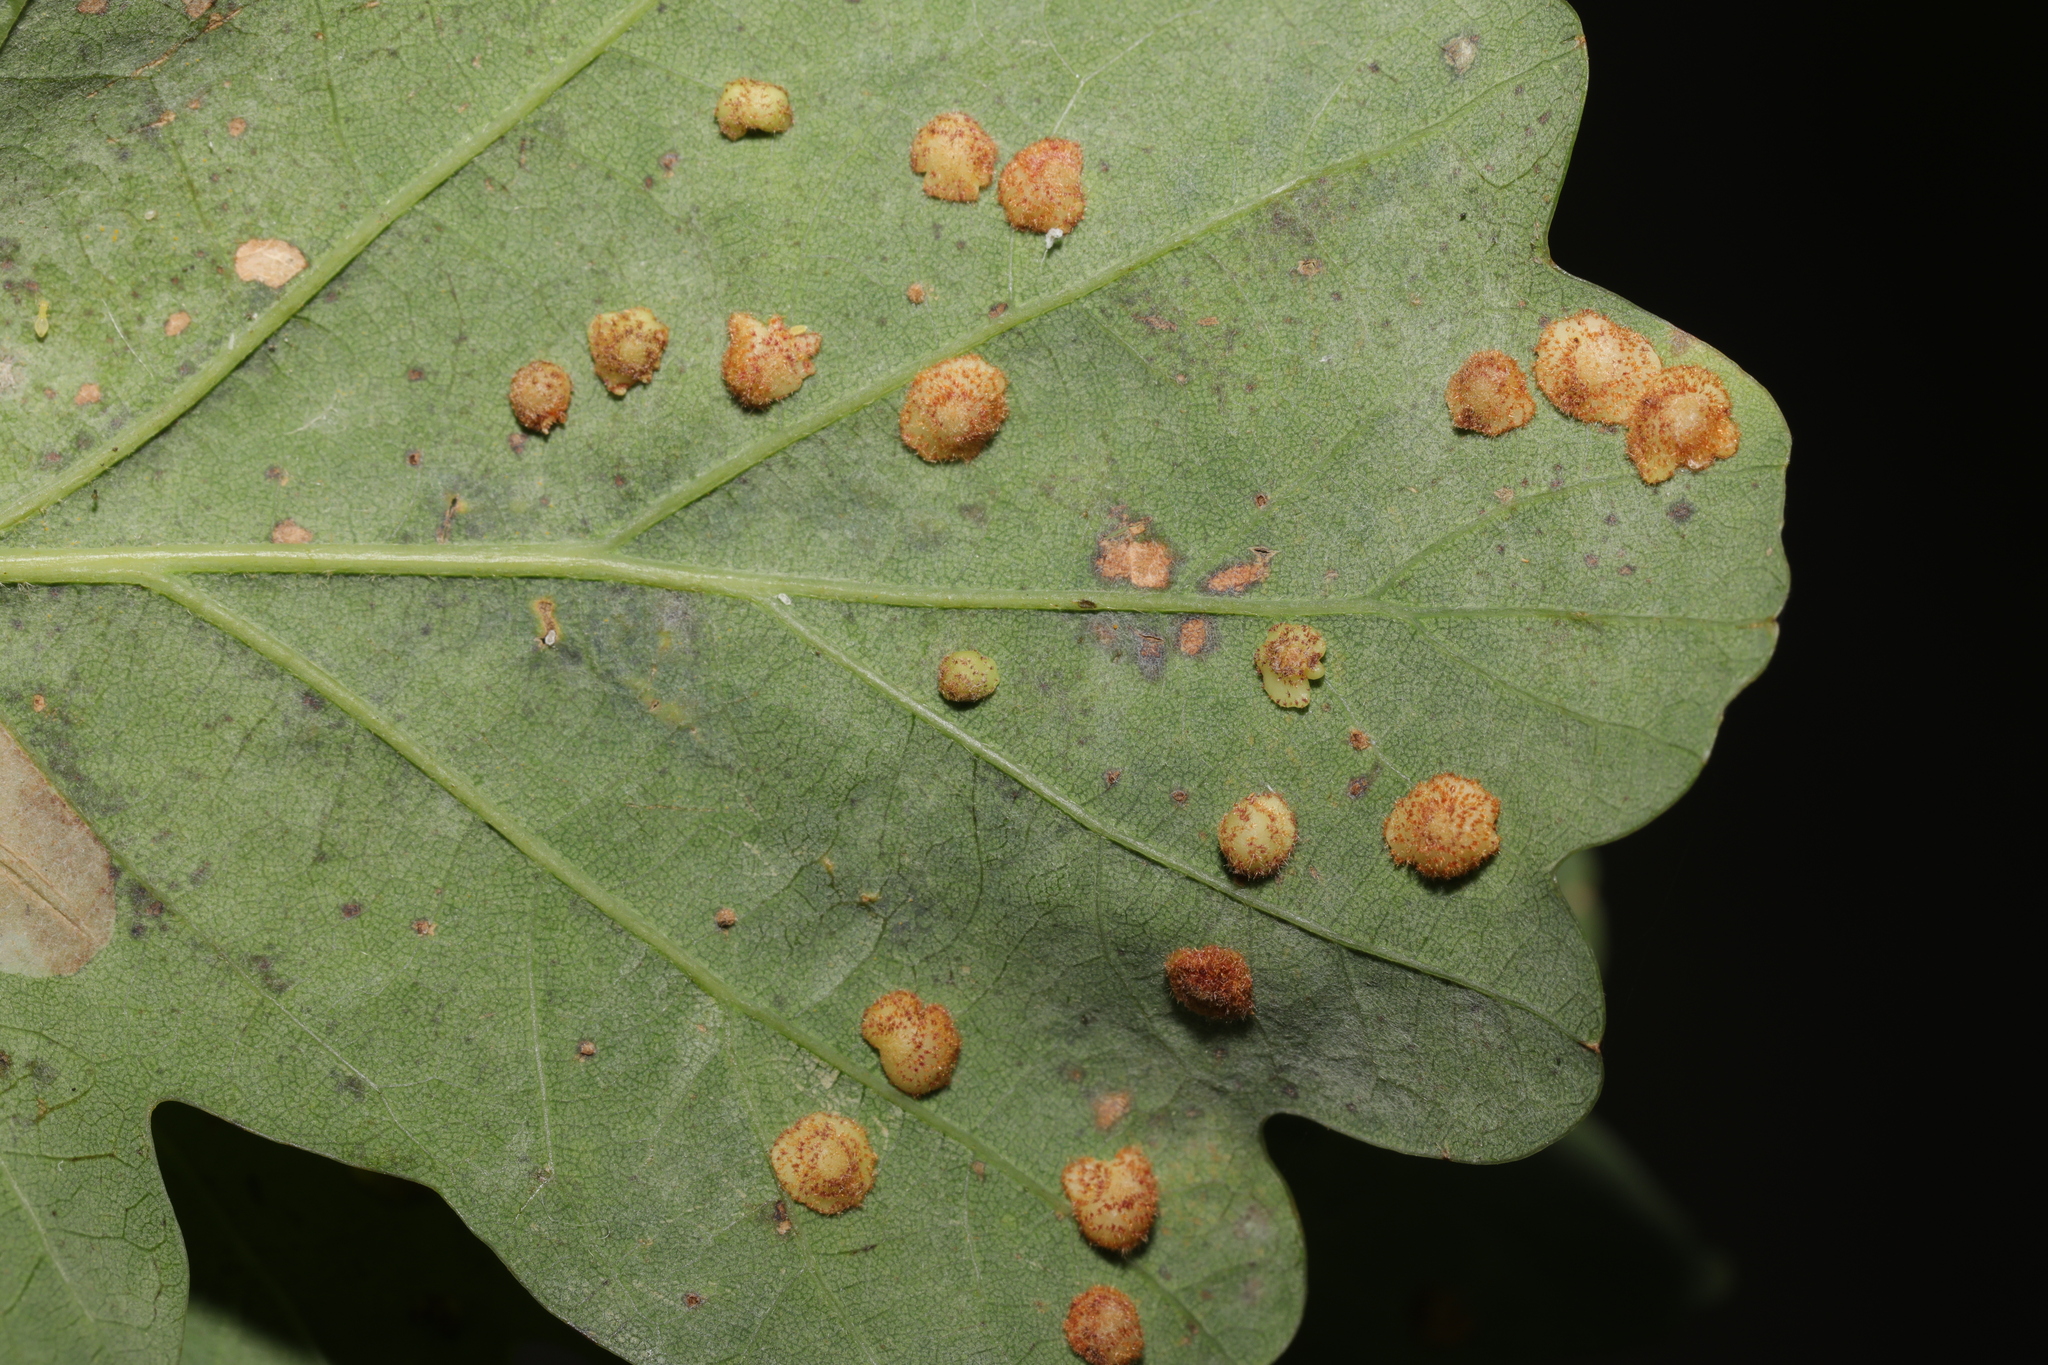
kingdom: Animalia
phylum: Arthropoda
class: Insecta
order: Hymenoptera
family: Cynipidae
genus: Neuroterus
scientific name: Neuroterus quercusbaccarum
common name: Common spangle gall
